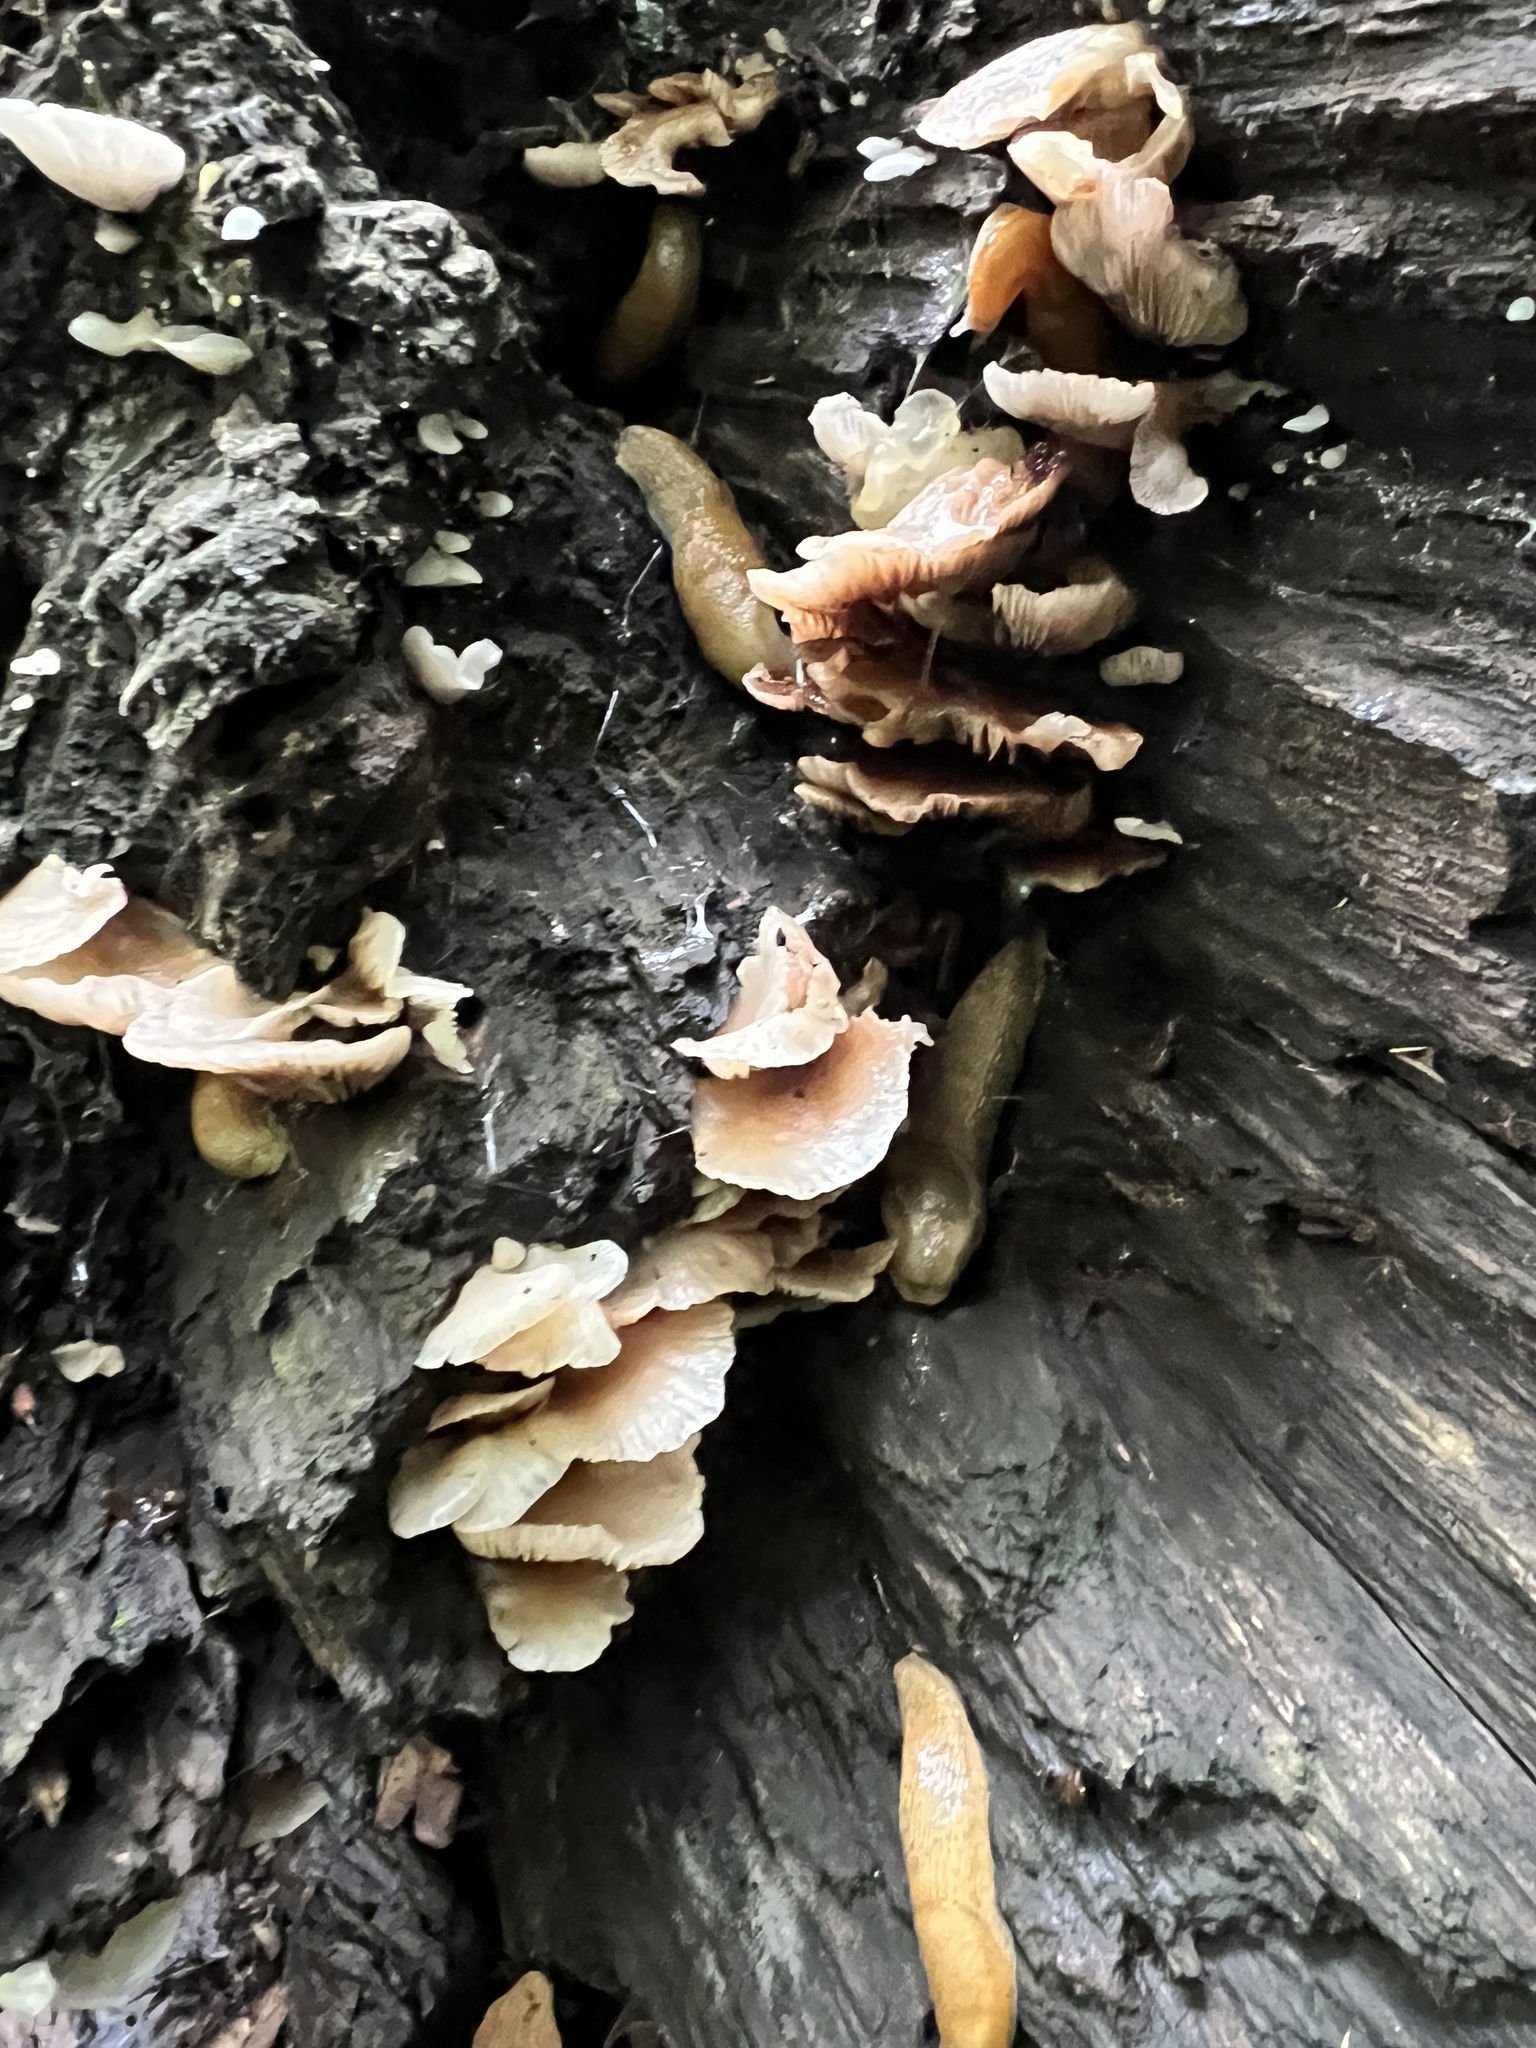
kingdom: Fungi
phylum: Basidiomycota
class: Agaricomycetes
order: Agaricales
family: Crepidotaceae
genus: Crepidotus
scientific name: Crepidotus stipitatus
